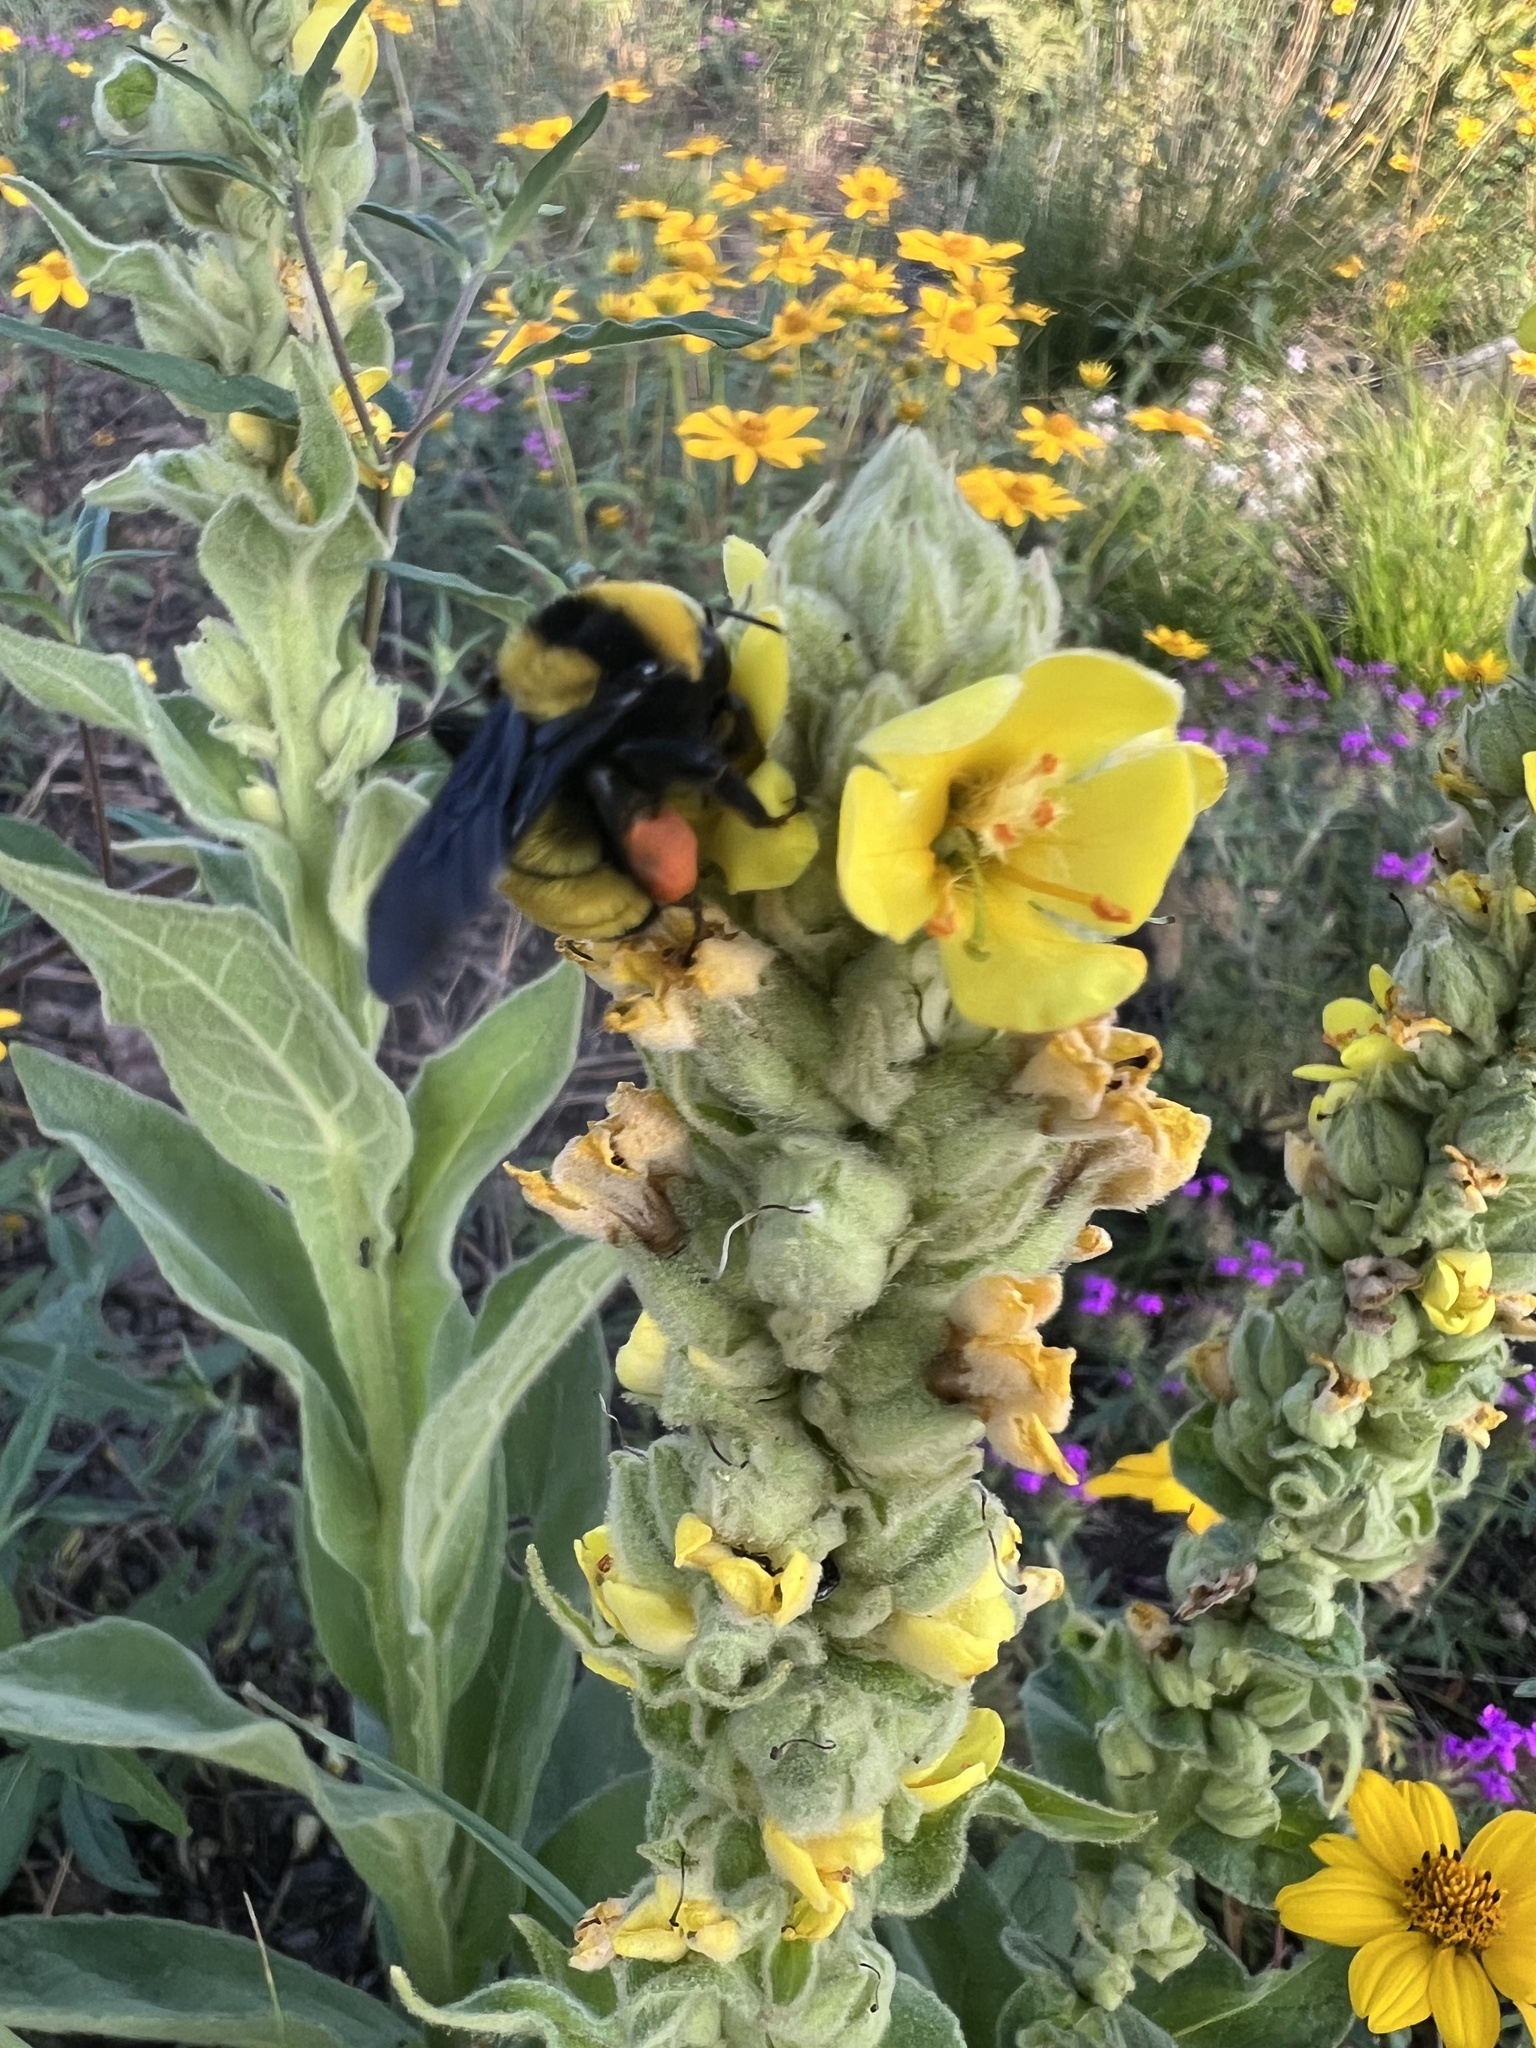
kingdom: Animalia
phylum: Arthropoda
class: Insecta
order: Hymenoptera
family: Apidae
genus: Bombus
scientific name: Bombus sonorus
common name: Sonoran bumble bee
